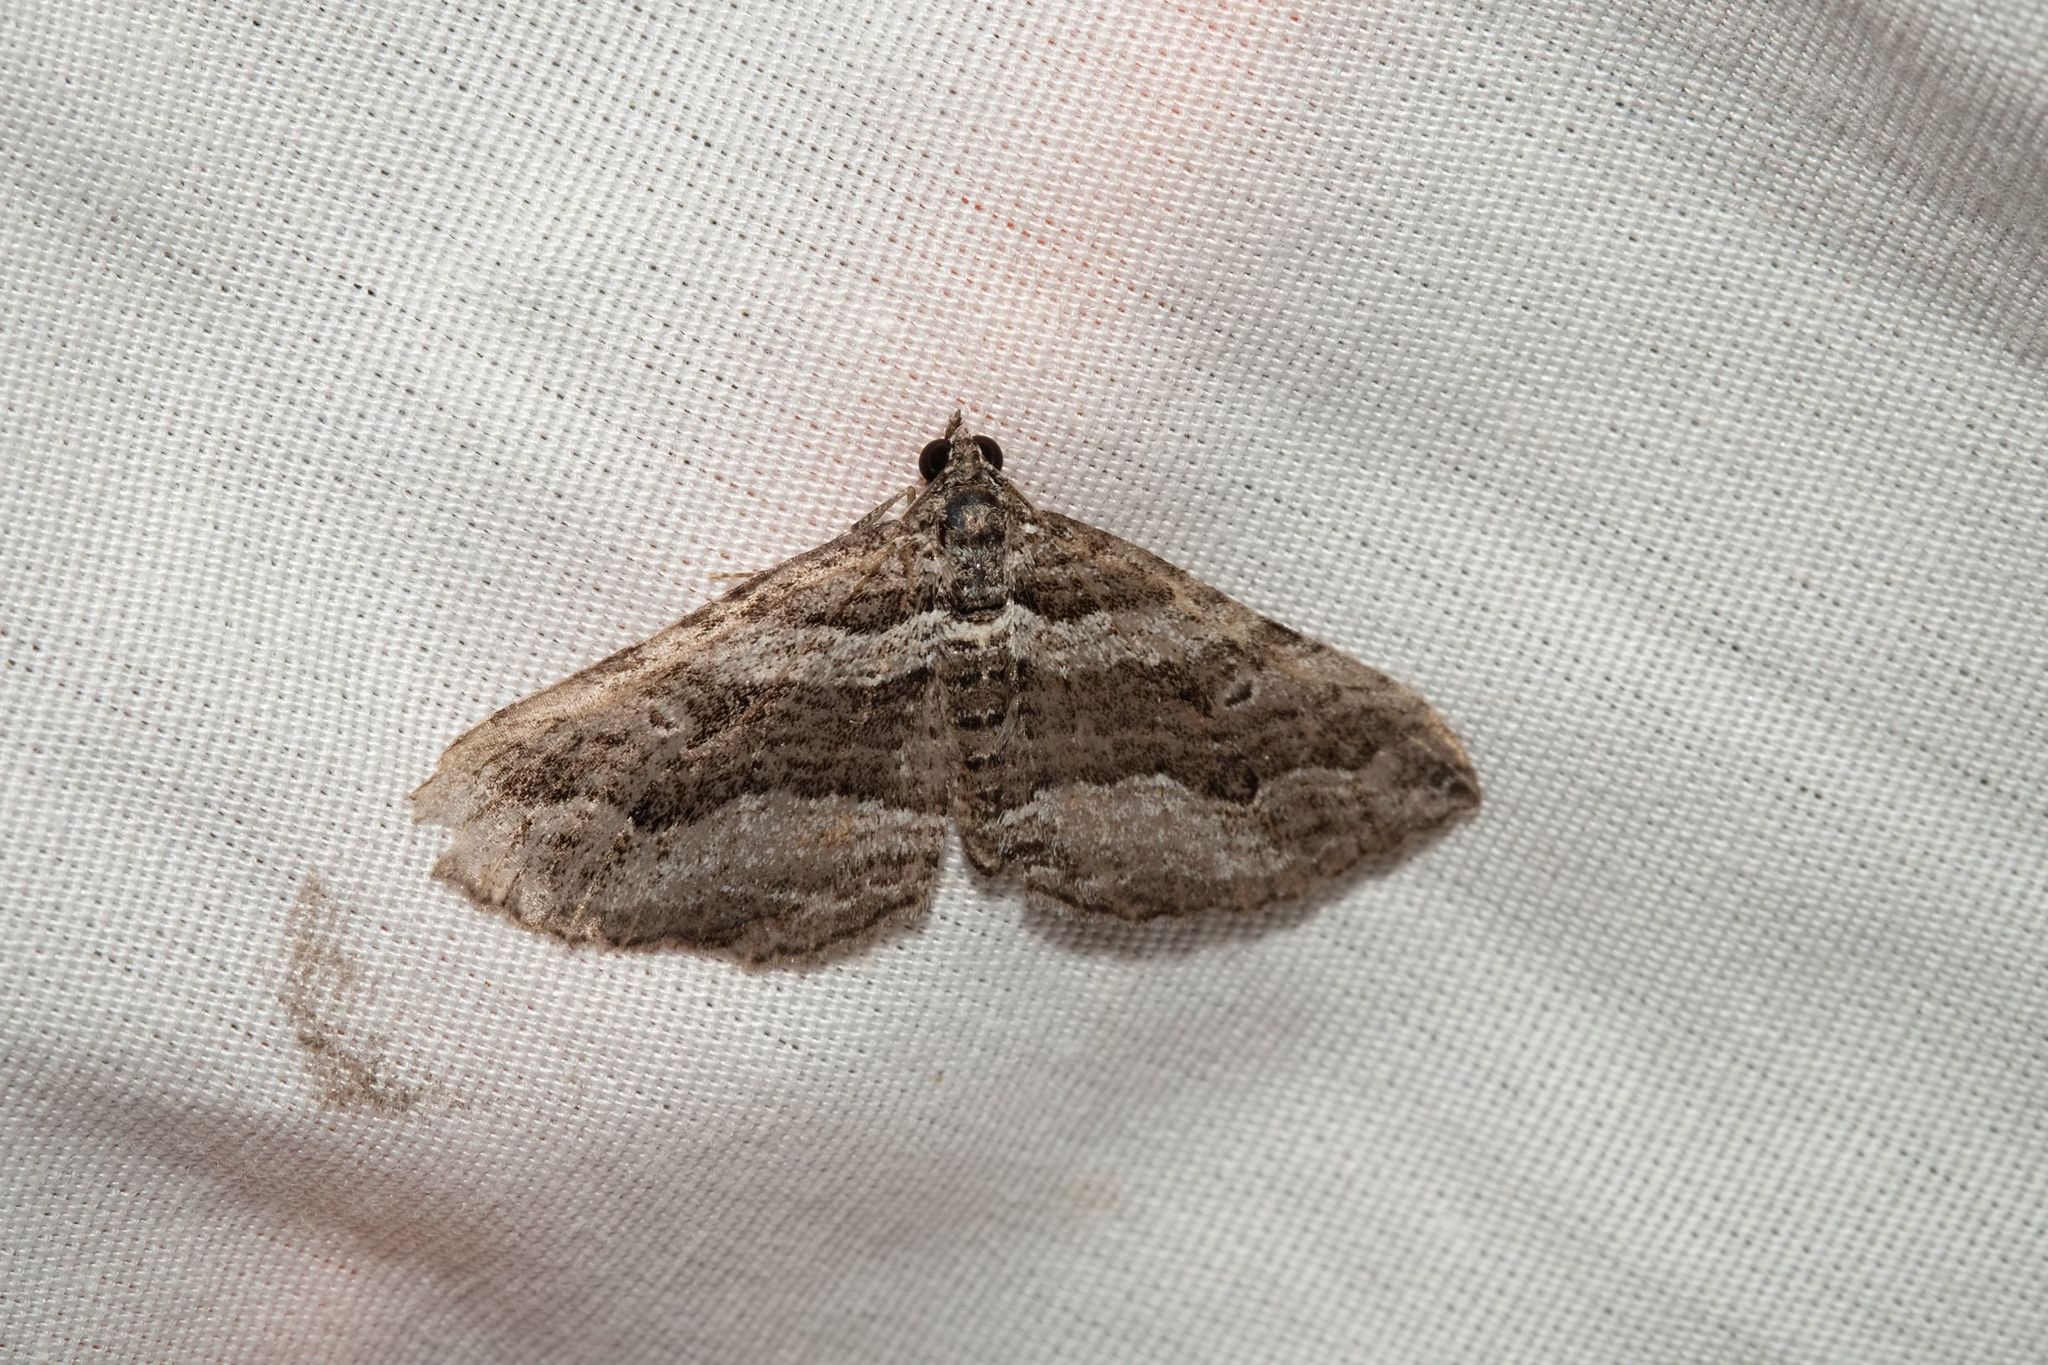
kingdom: Animalia
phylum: Arthropoda
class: Insecta
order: Lepidoptera
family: Geometridae
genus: Chrysolarentia
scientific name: Chrysolarentia severata
